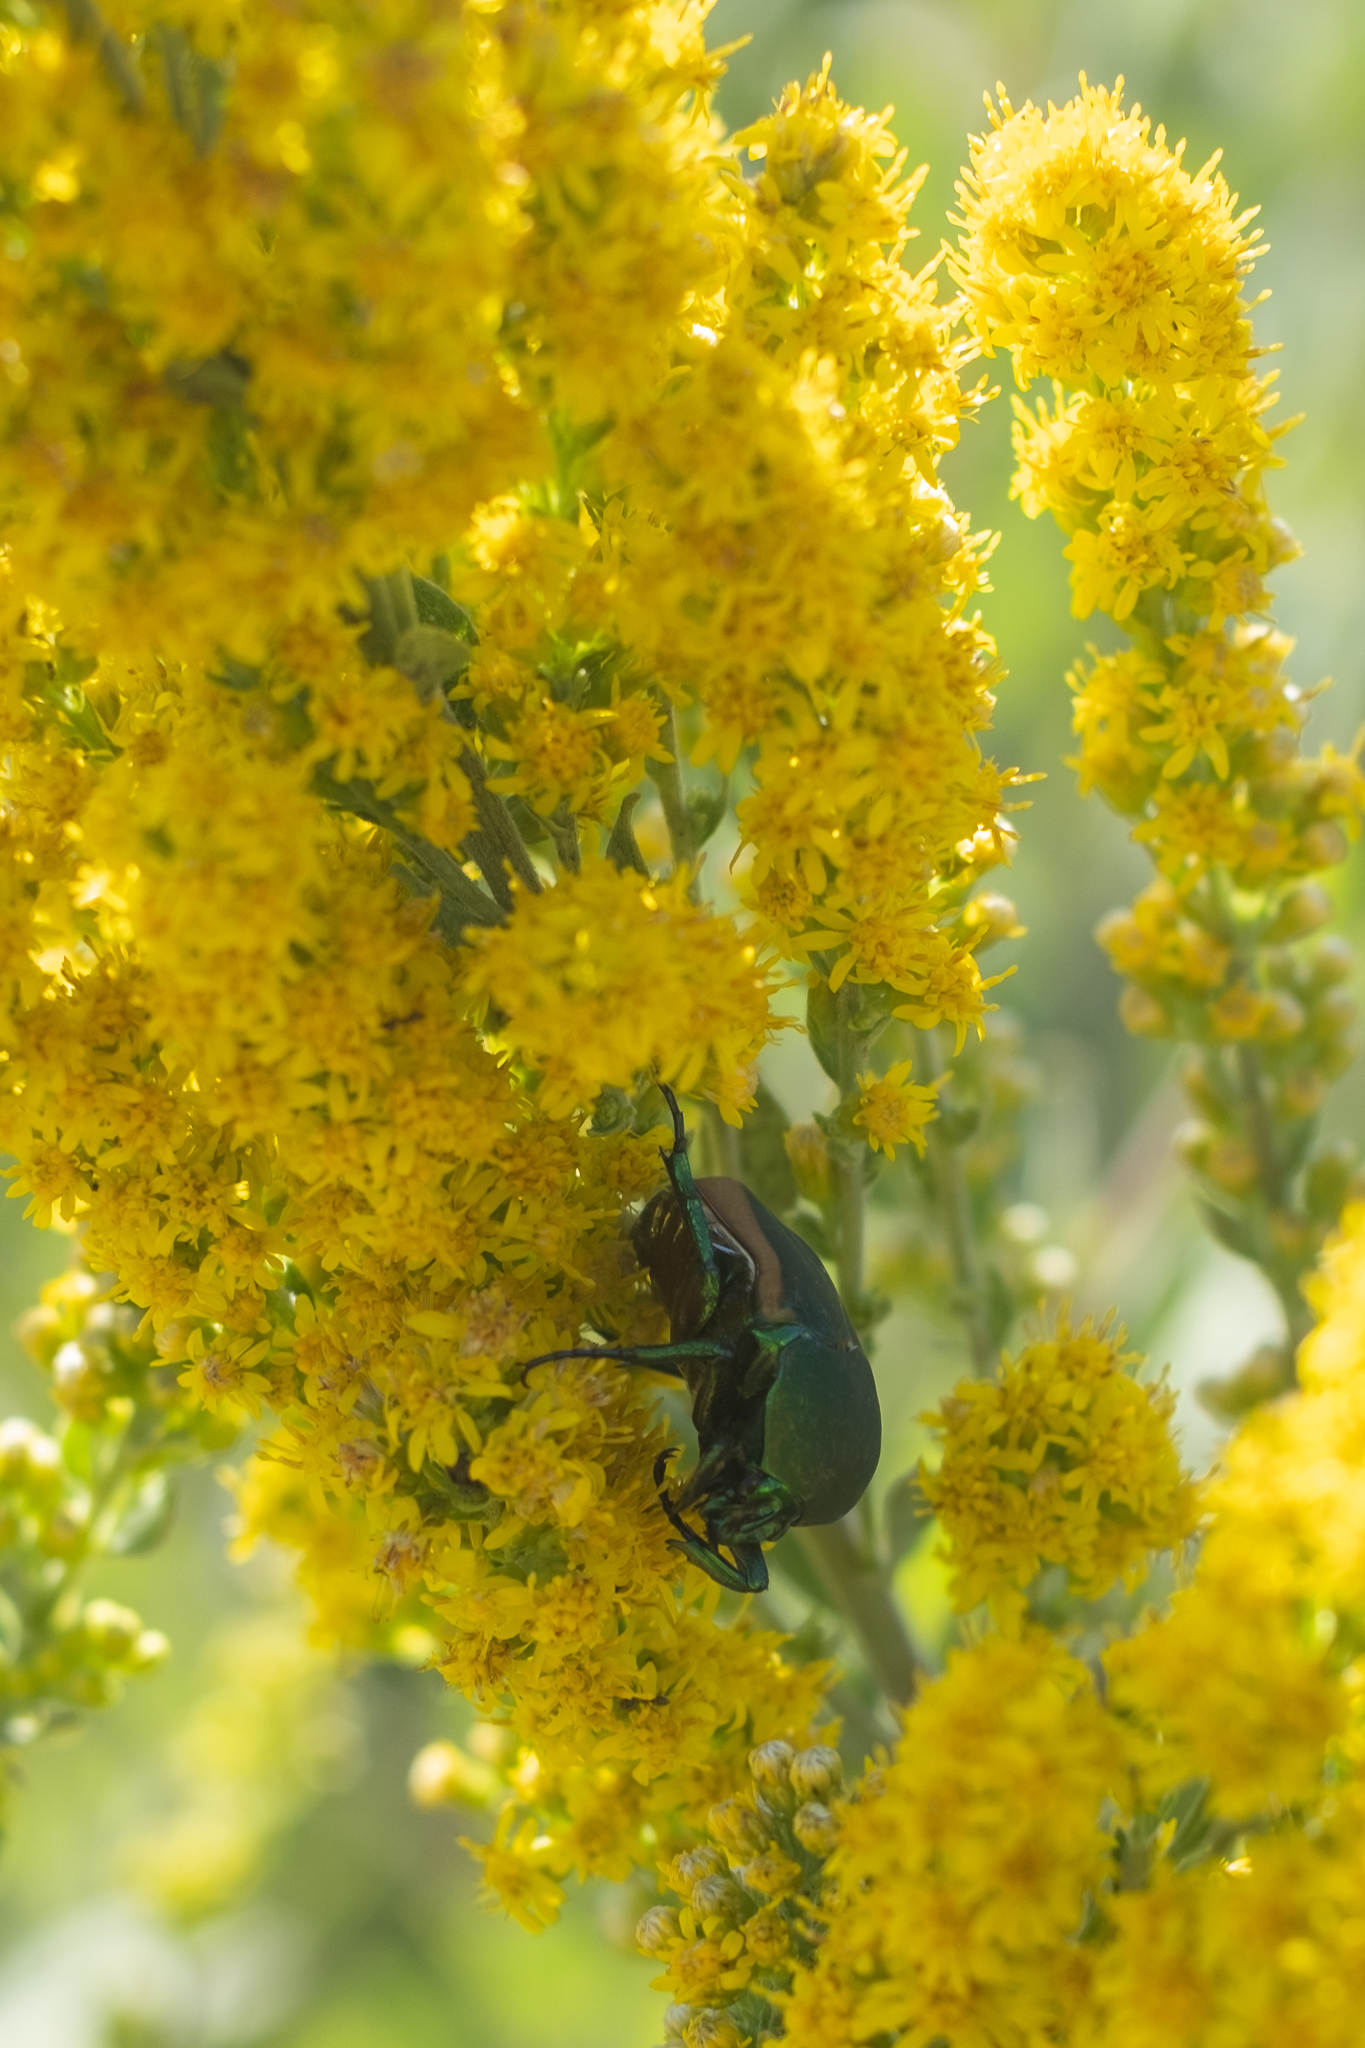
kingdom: Animalia
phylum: Arthropoda
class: Insecta
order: Coleoptera
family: Scarabaeidae
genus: Cotinis
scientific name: Cotinis mutabilis
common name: Figeater beetle
